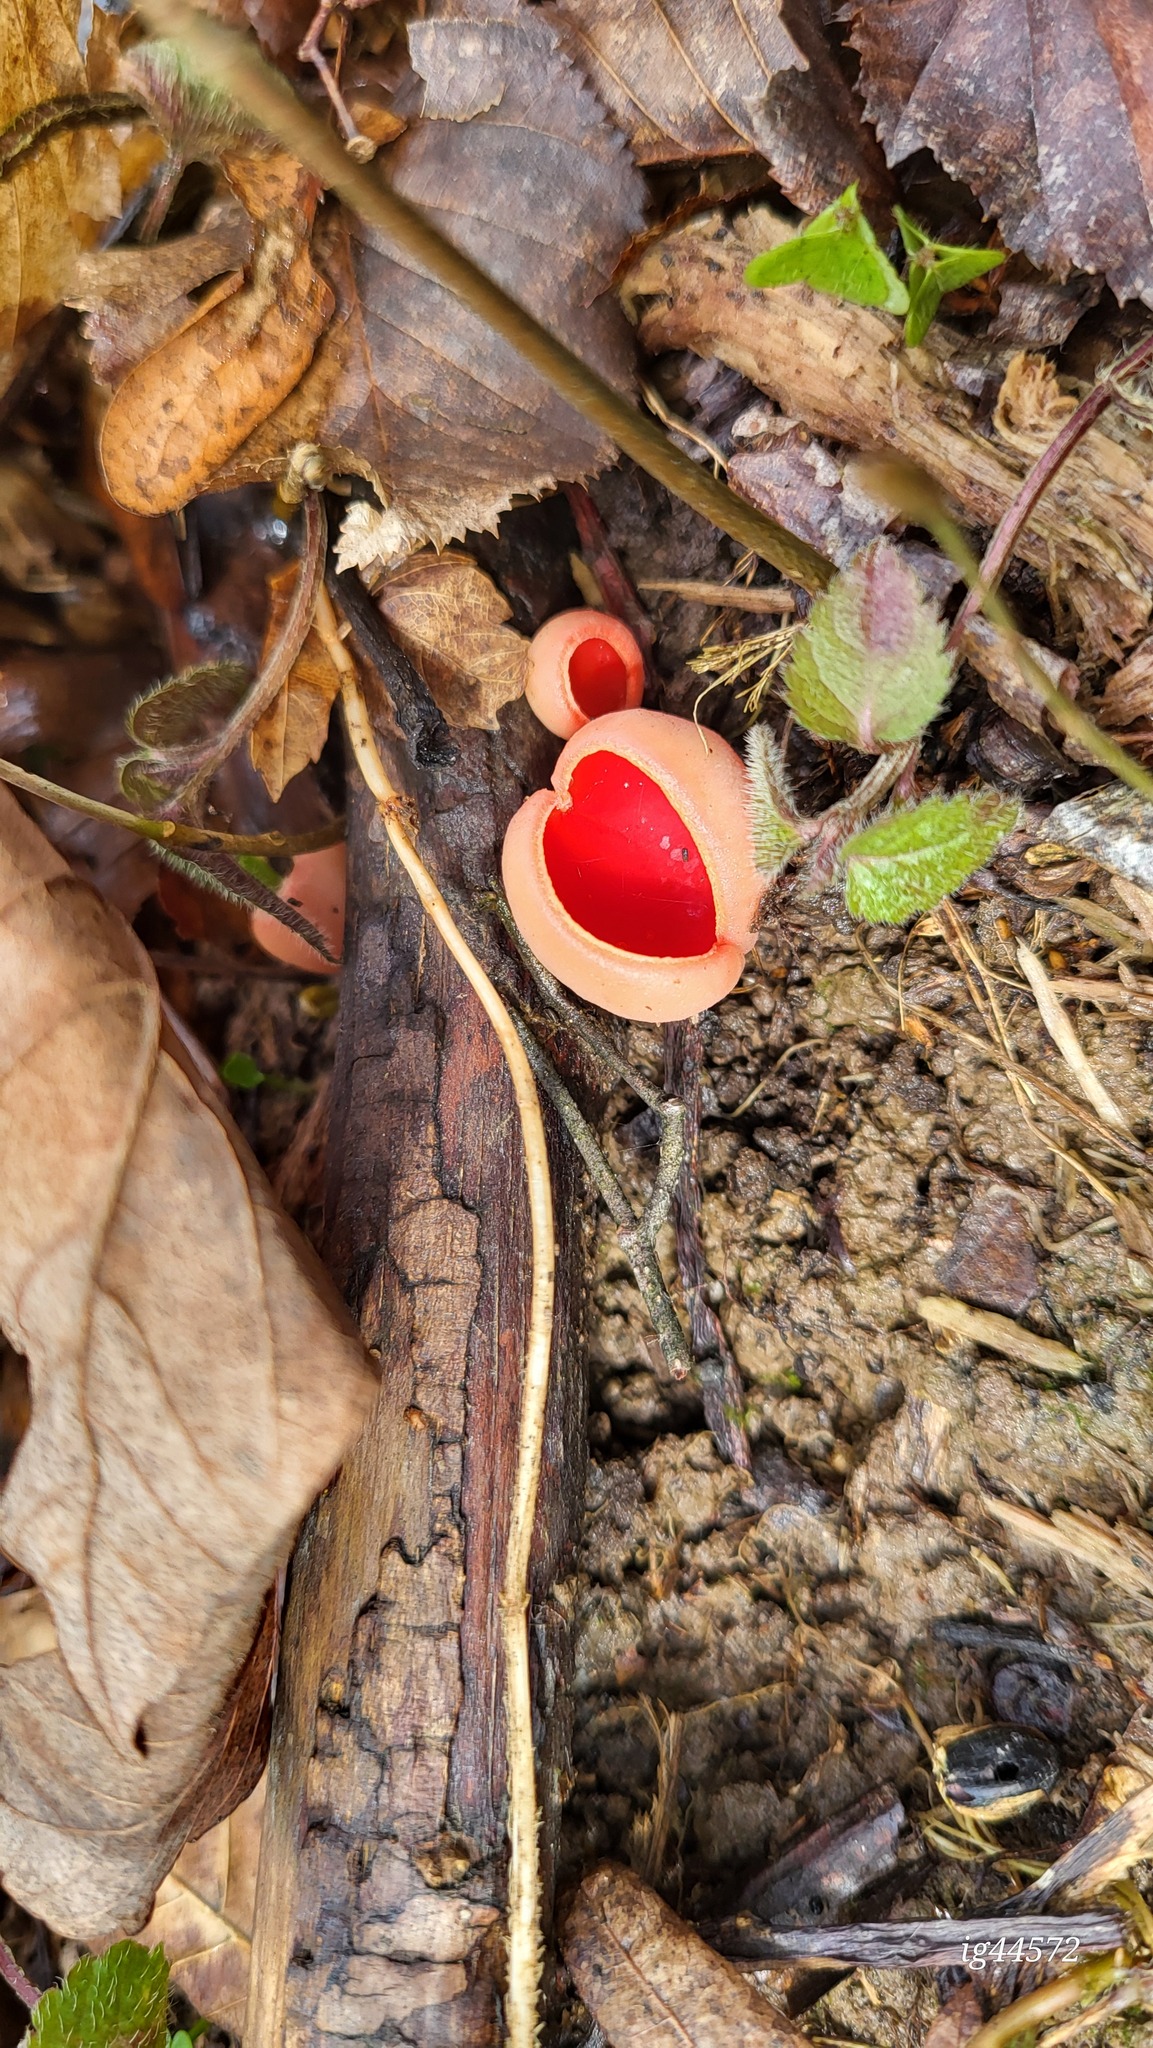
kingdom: Fungi
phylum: Ascomycota
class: Pezizomycetes
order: Pezizales
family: Sarcoscyphaceae
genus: Sarcoscypha
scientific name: Sarcoscypha
